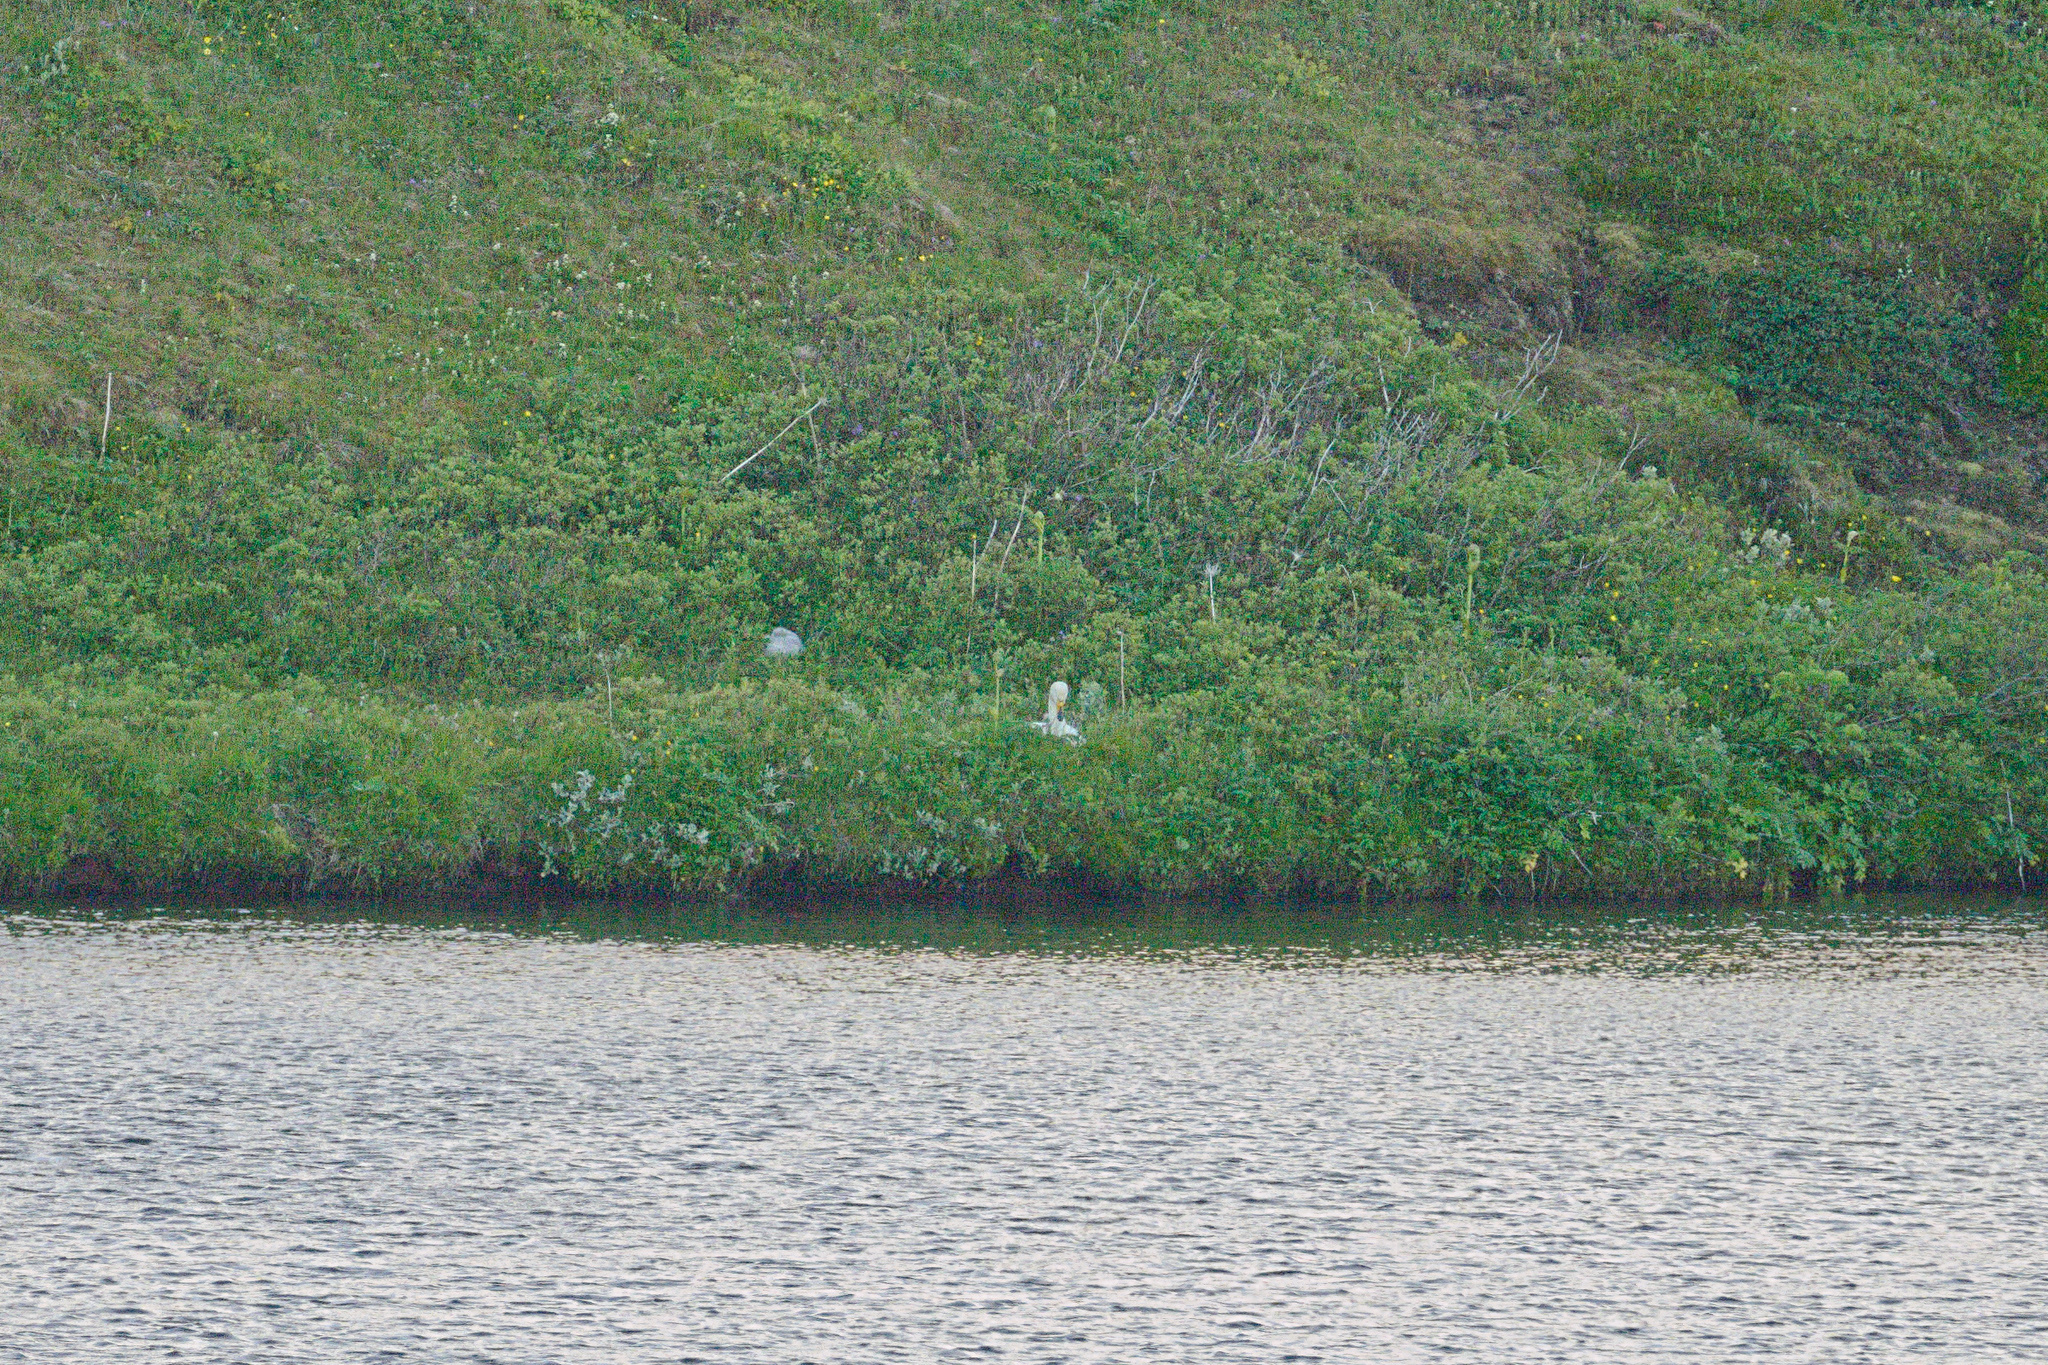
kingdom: Animalia
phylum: Chordata
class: Aves
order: Anseriformes
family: Anatidae
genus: Cygnus
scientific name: Cygnus cygnus
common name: Whooper swan
